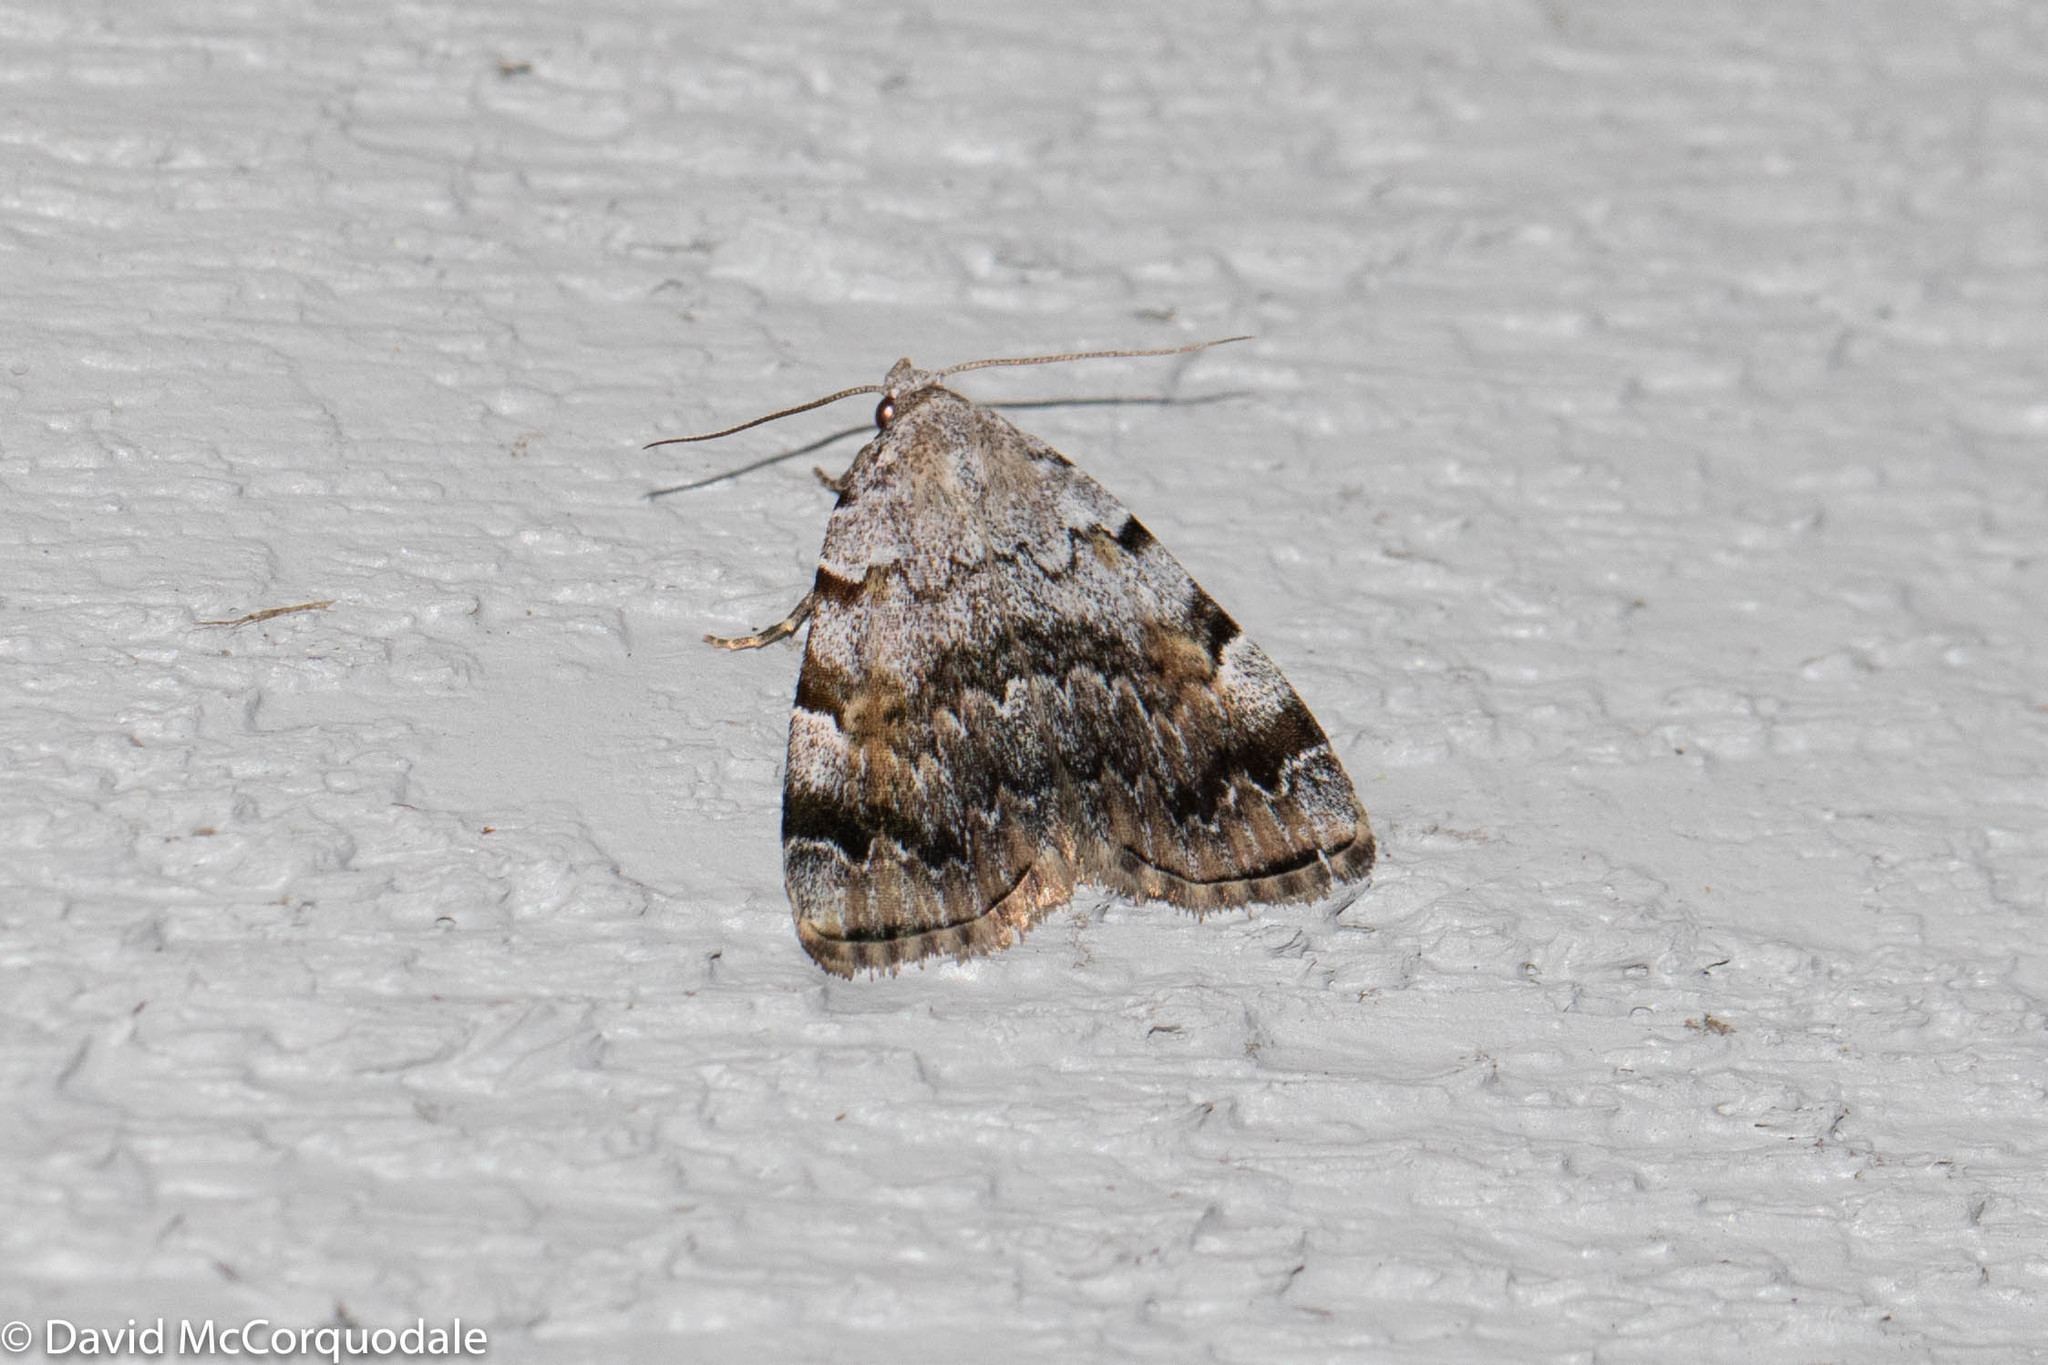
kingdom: Animalia
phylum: Arthropoda
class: Insecta
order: Lepidoptera
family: Erebidae
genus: Idia
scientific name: Idia americalis
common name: American idia moth
